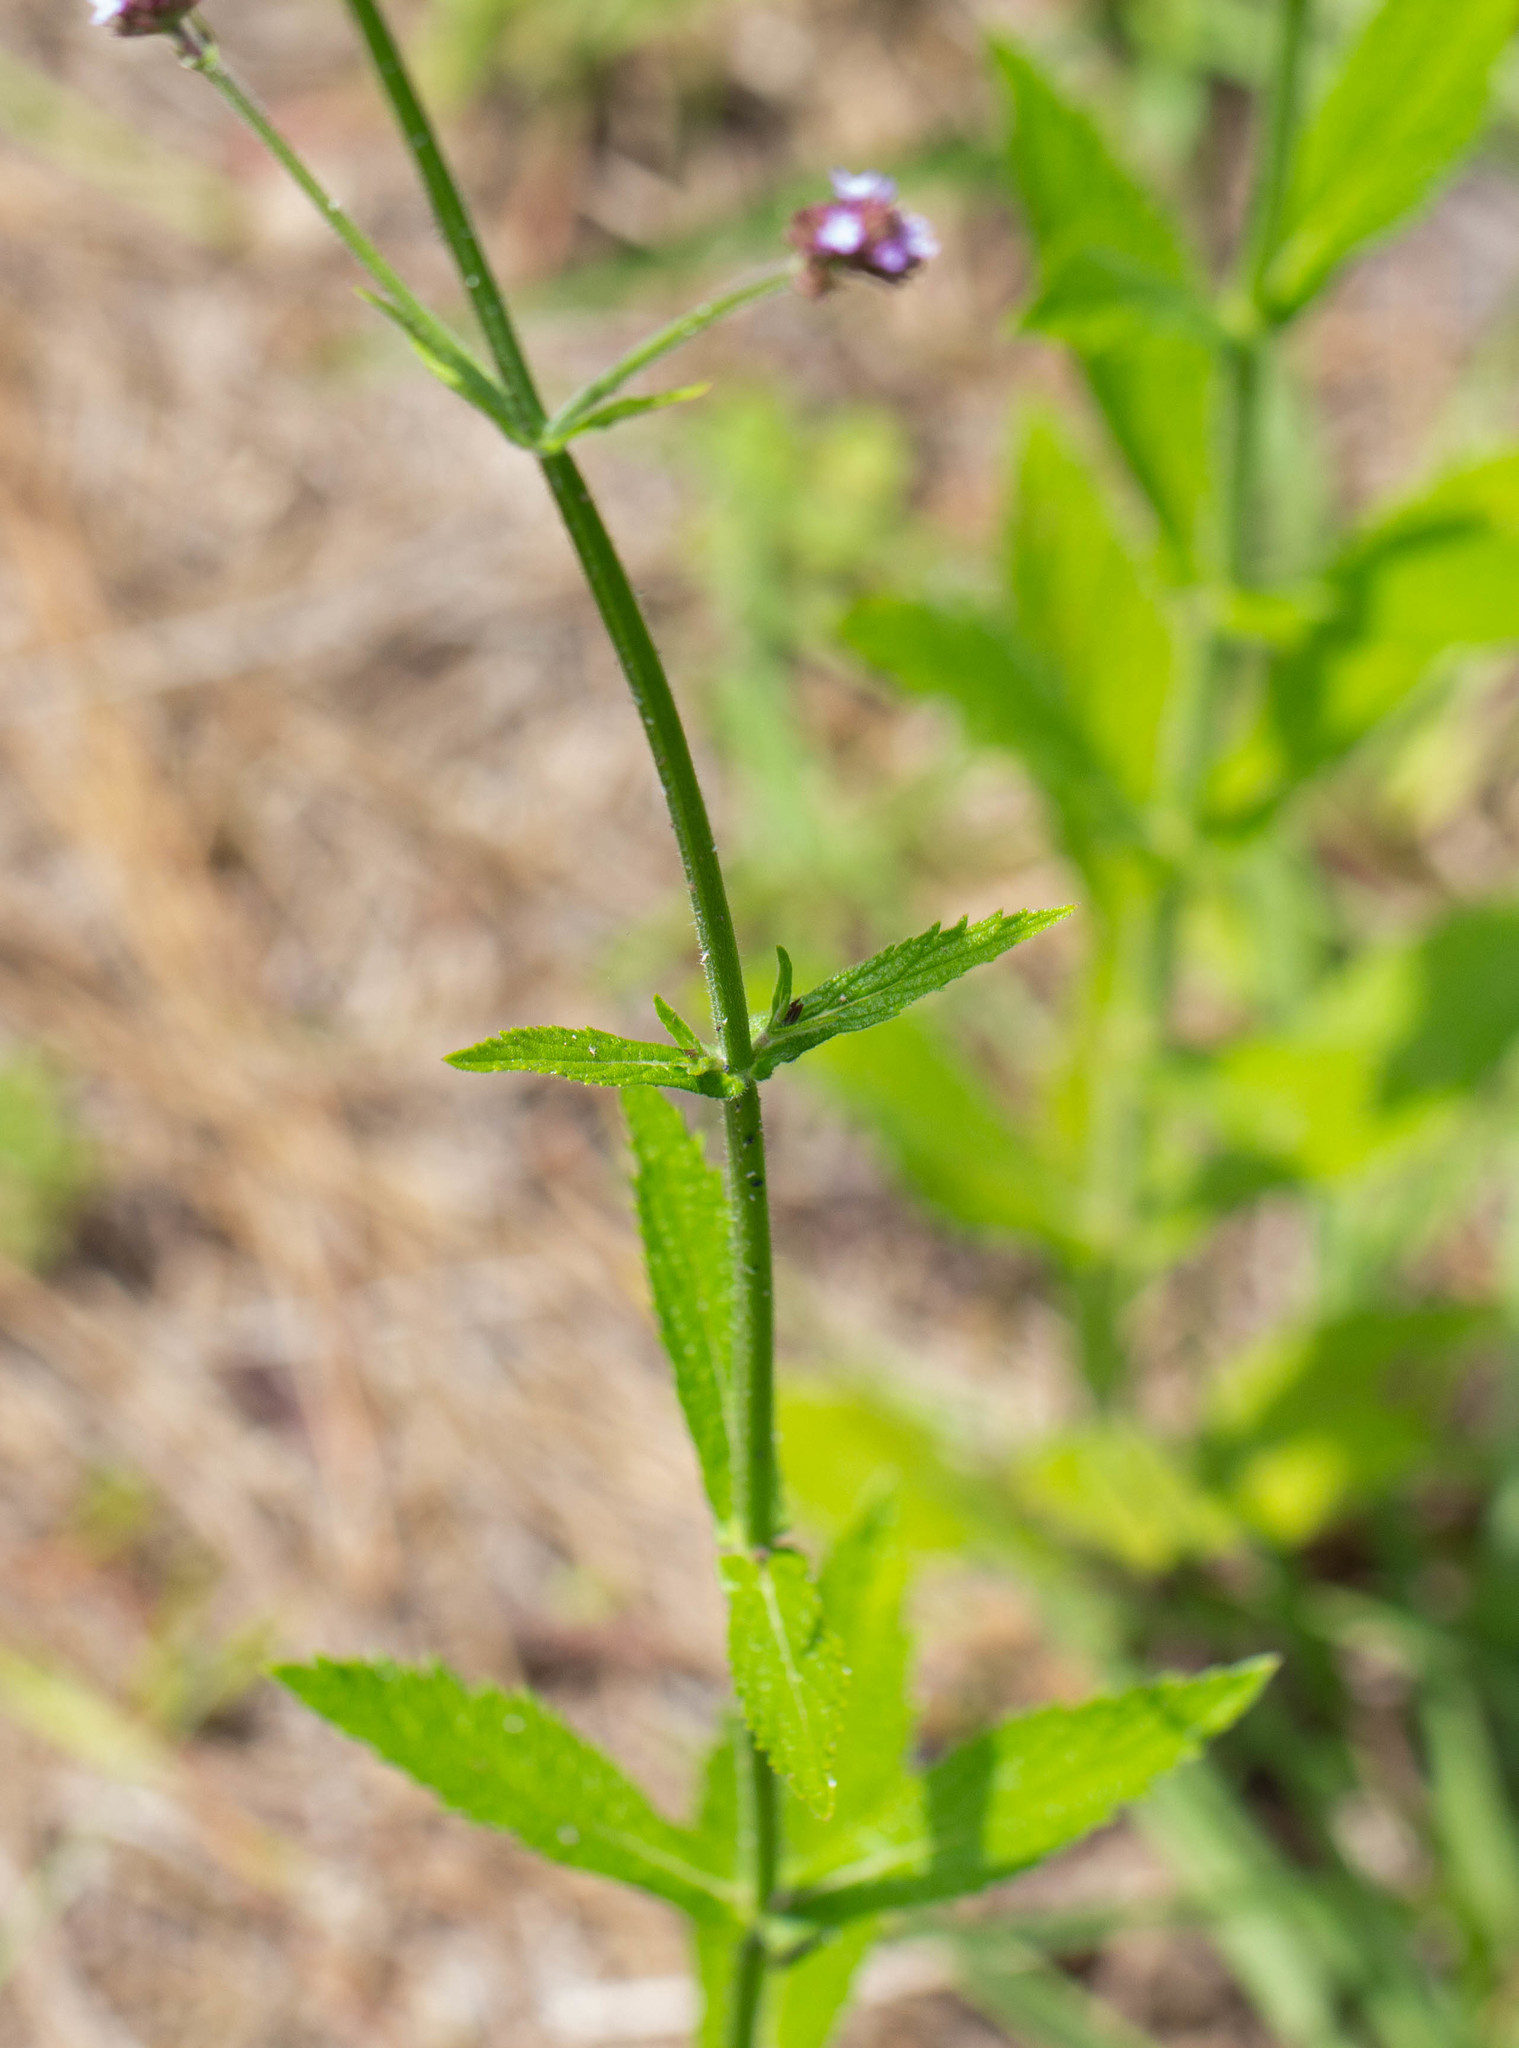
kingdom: Plantae
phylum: Tracheophyta
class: Magnoliopsida
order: Lamiales
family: Verbenaceae
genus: Verbena
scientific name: Verbena brasiliensis
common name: Brazilian vervain
